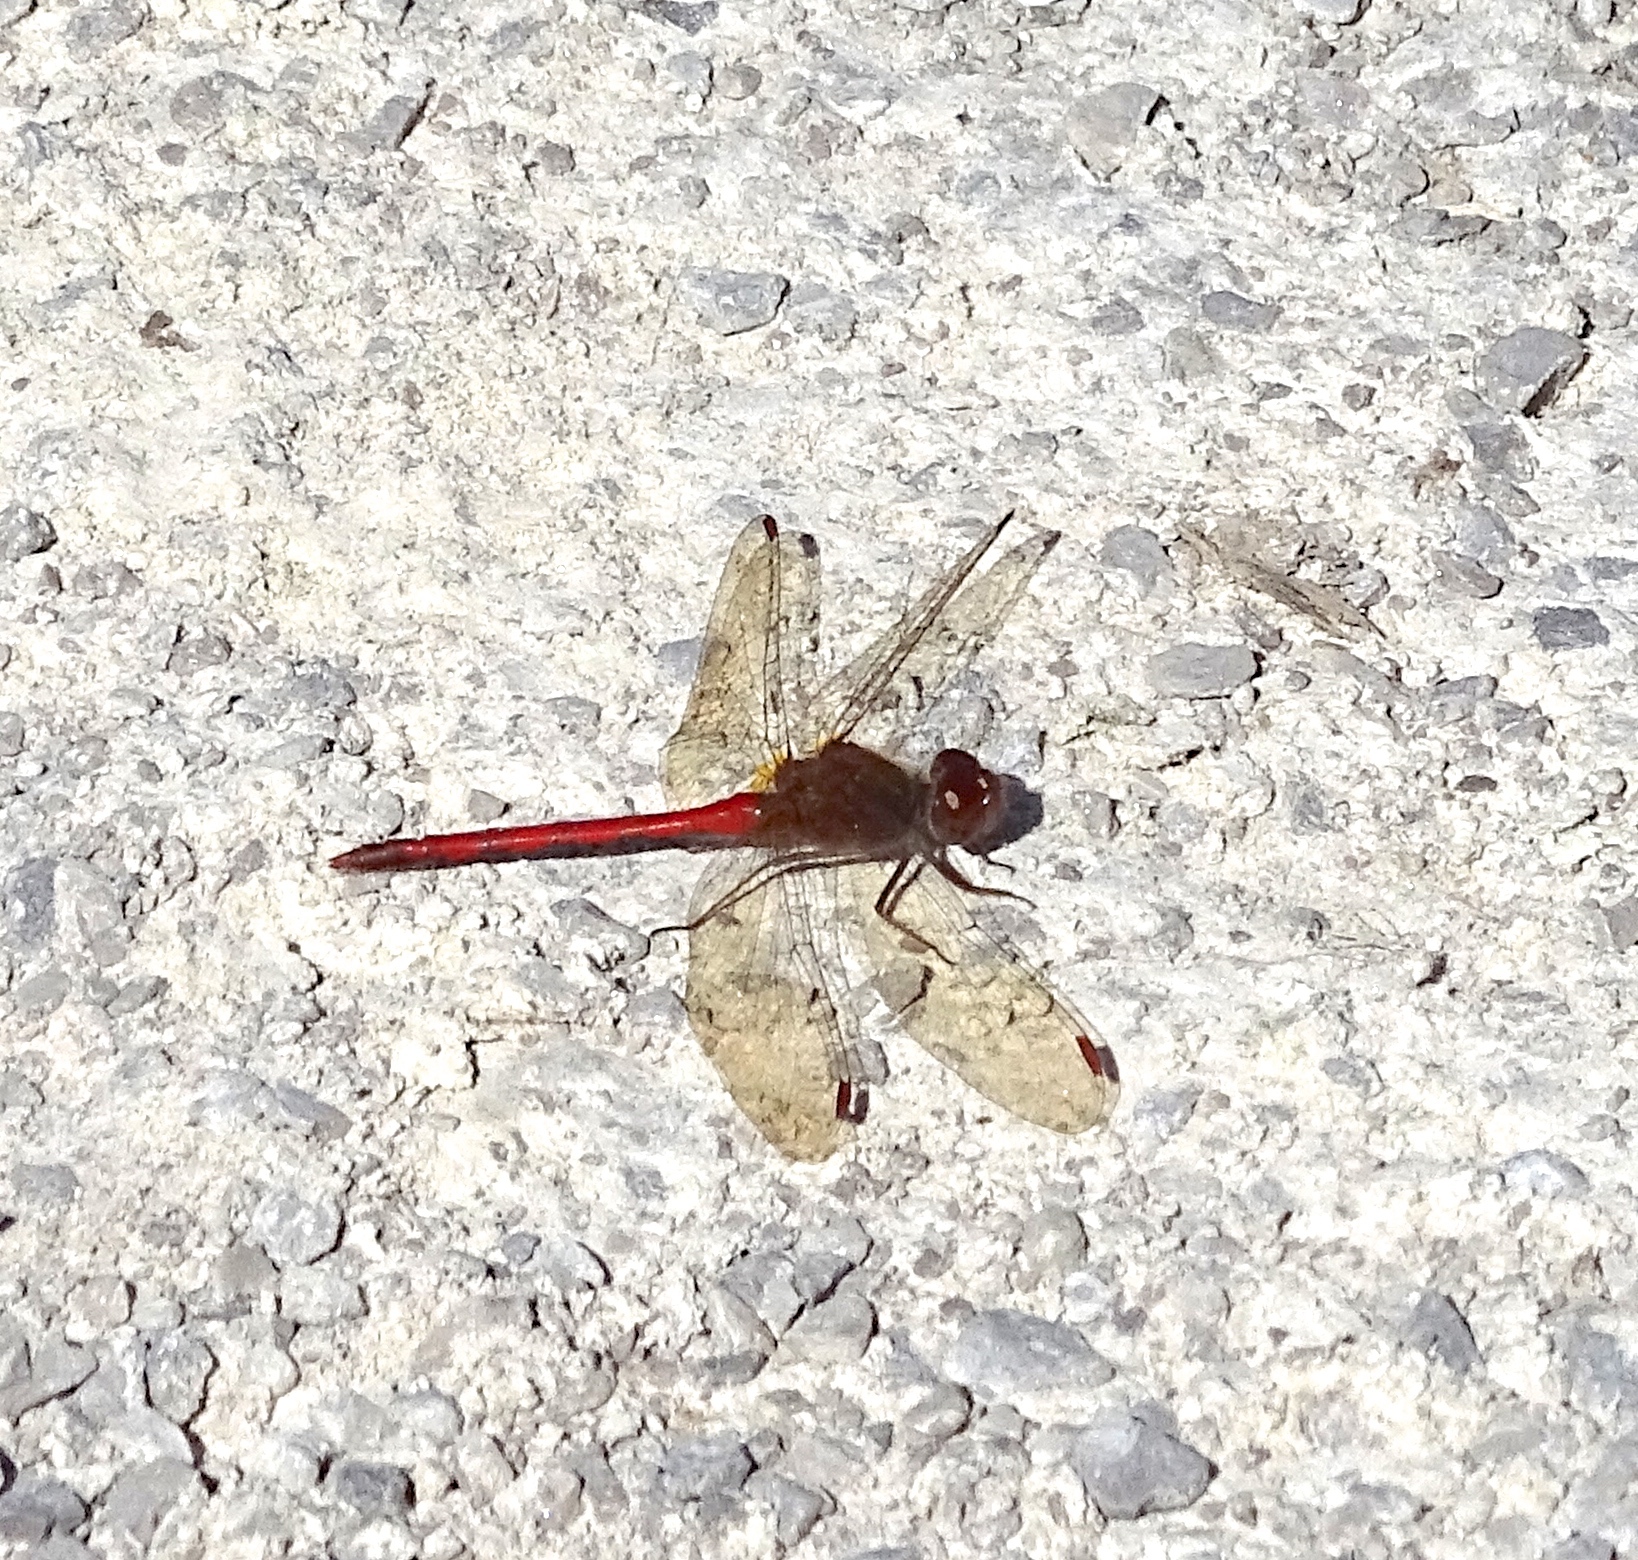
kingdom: Animalia
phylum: Arthropoda
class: Insecta
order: Odonata
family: Libellulidae
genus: Sympetrum
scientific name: Sympetrum vicinum
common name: Autumn meadowhawk
